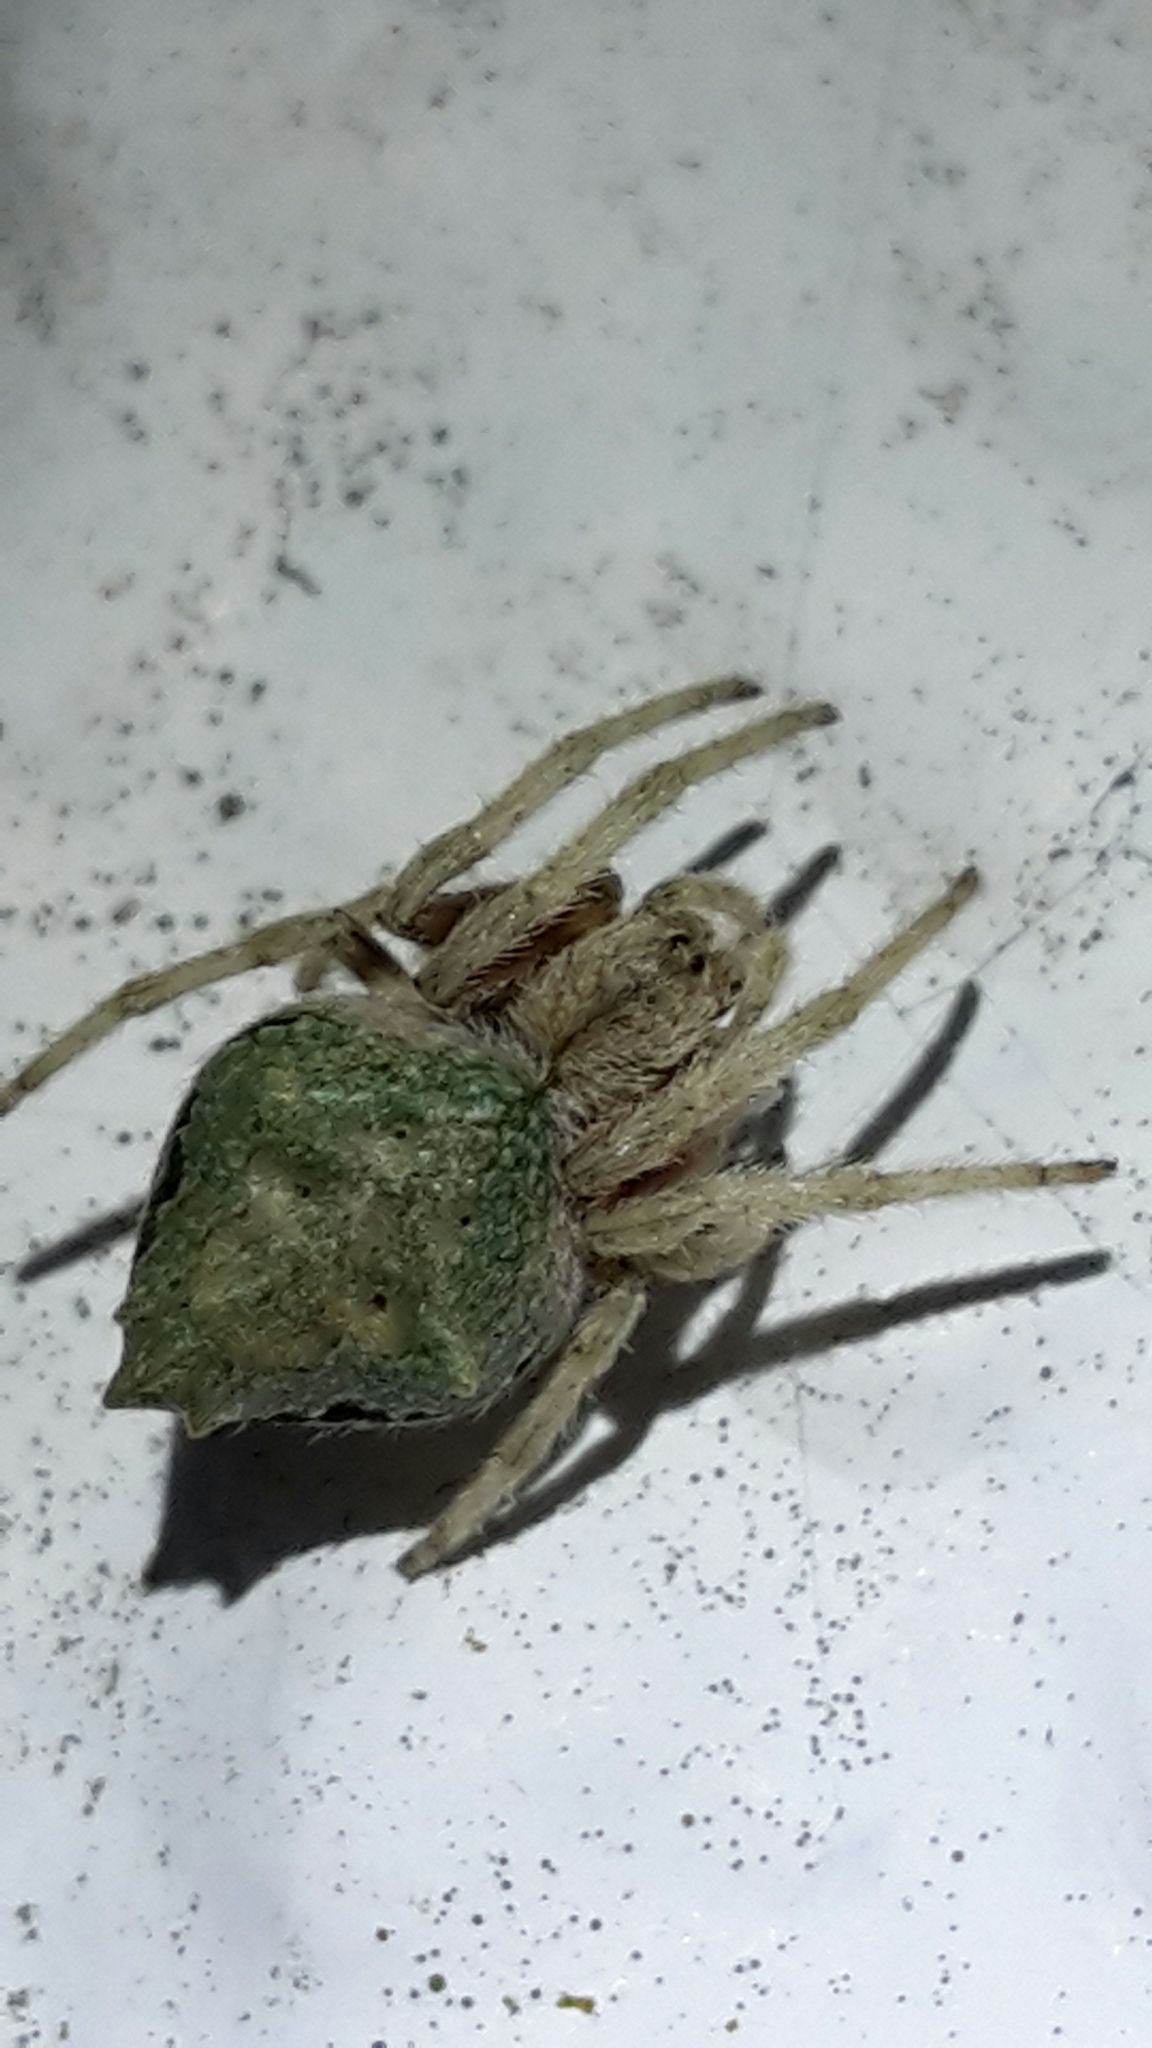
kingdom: Animalia
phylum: Arthropoda
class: Arachnida
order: Araneae
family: Araneidae
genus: Eriophora
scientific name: Eriophora pustulosa
